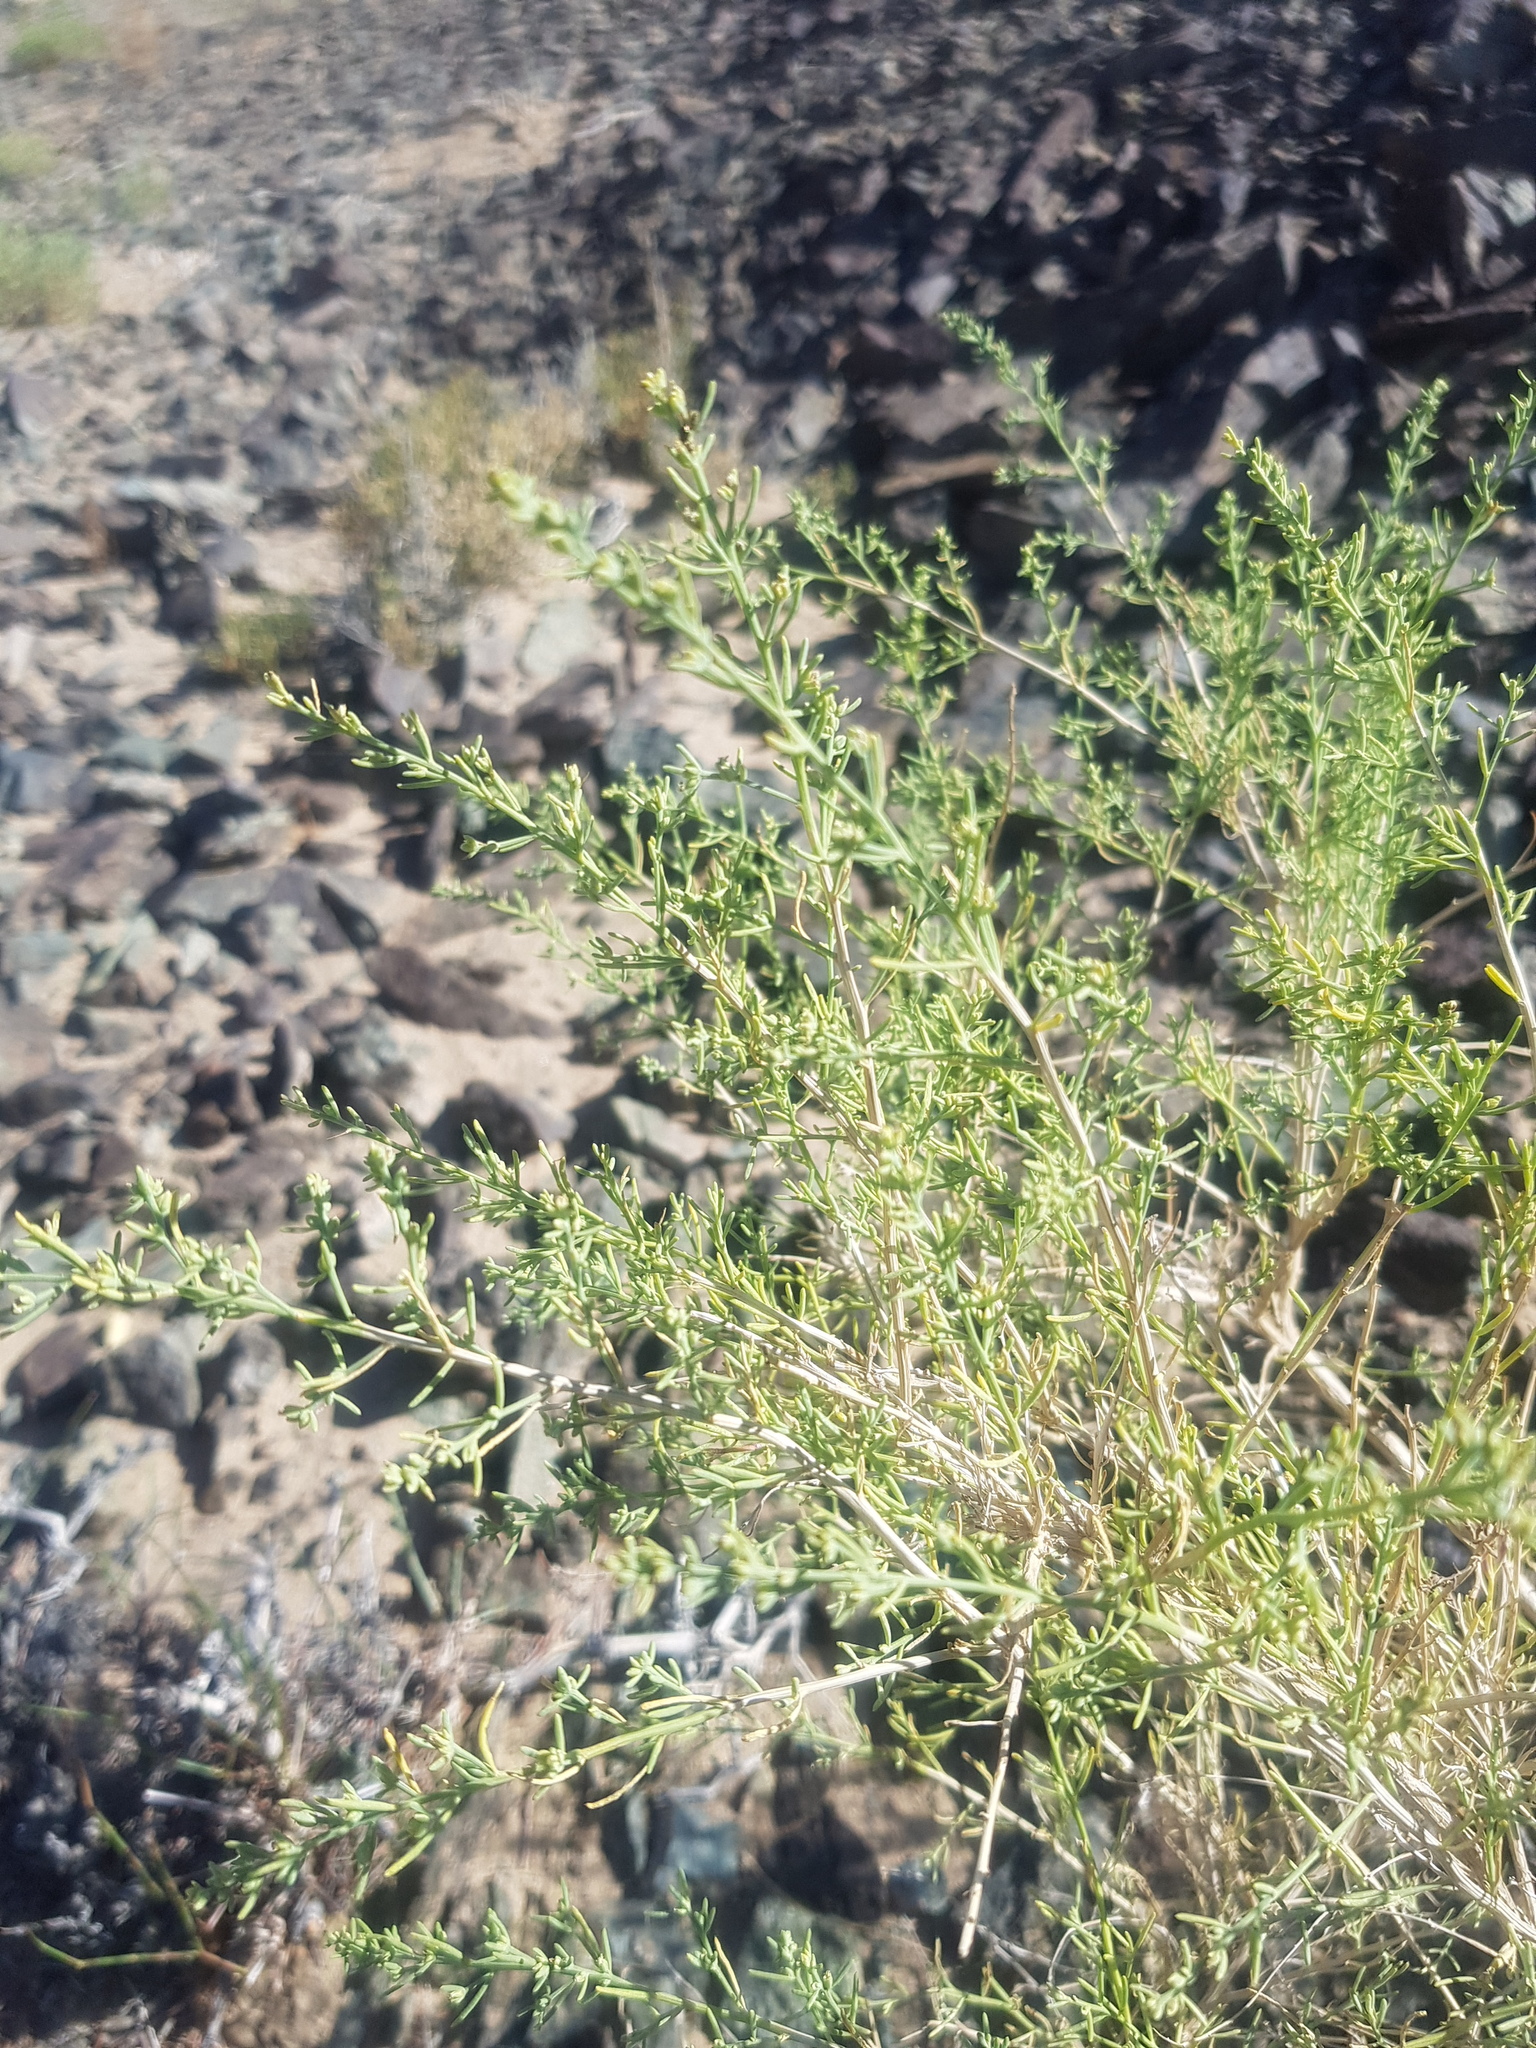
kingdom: Plantae
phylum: Tracheophyta
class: Magnoliopsida
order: Caryophyllales
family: Amaranthaceae
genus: Sympegma
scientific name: Sympegma regelii
